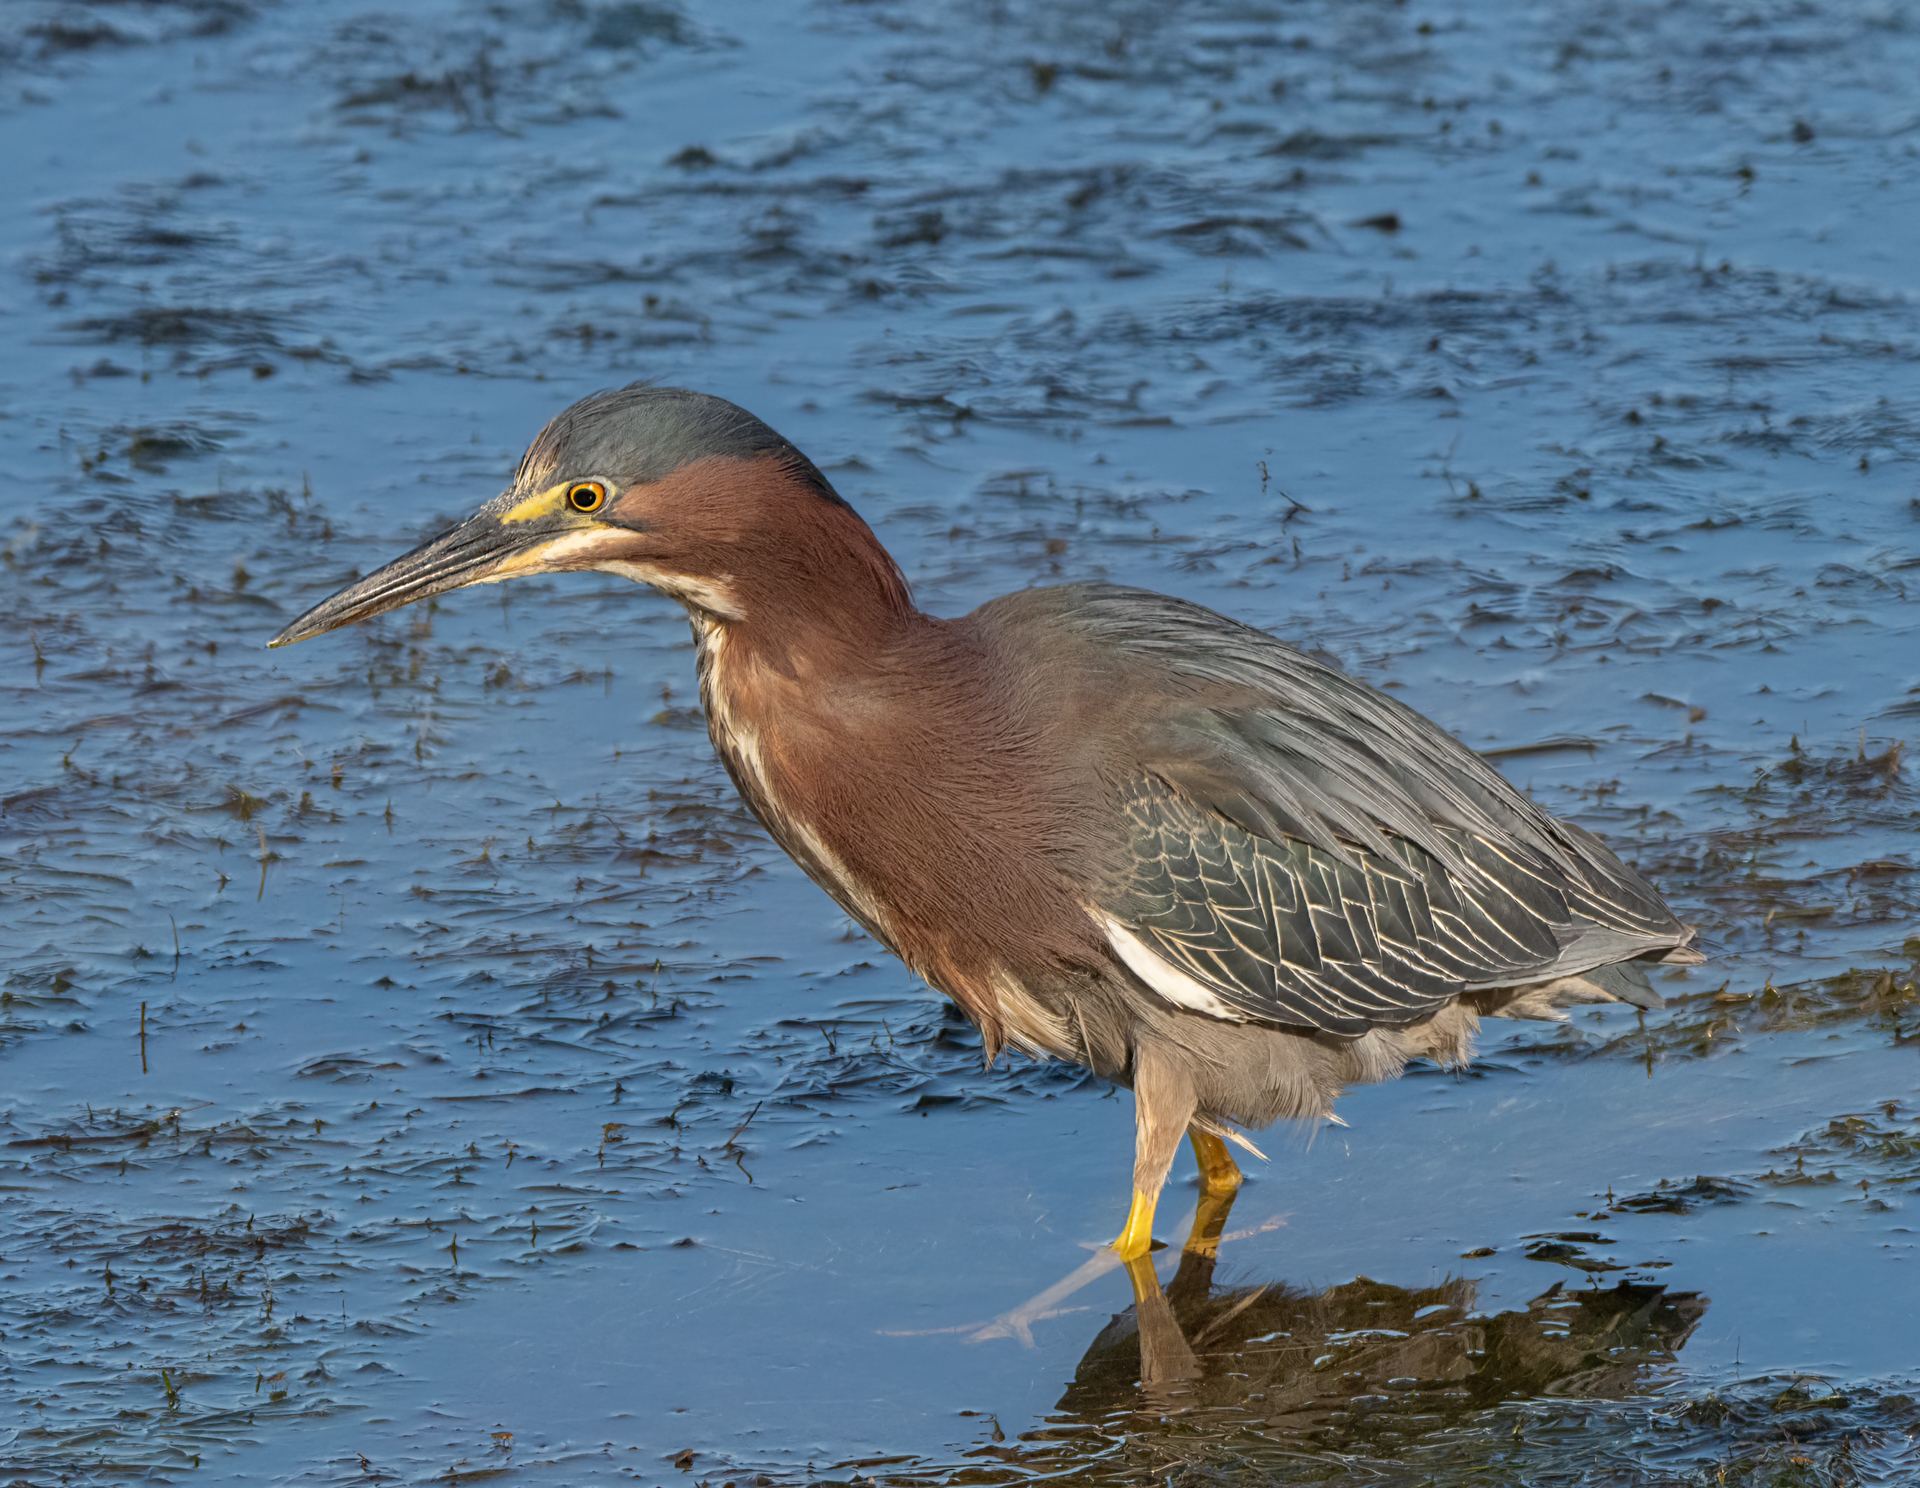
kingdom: Animalia
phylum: Chordata
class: Aves
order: Pelecaniformes
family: Ardeidae
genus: Butorides
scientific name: Butorides virescens
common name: Green heron
